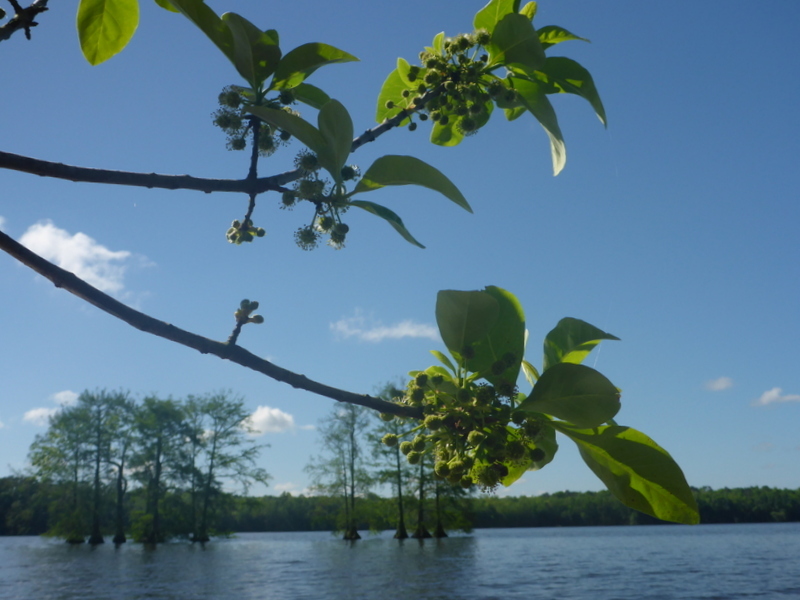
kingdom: Plantae
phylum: Tracheophyta
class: Magnoliopsida
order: Cornales
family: Nyssaceae
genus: Nyssa
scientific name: Nyssa ogeche
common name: Ogeechee tupelo
